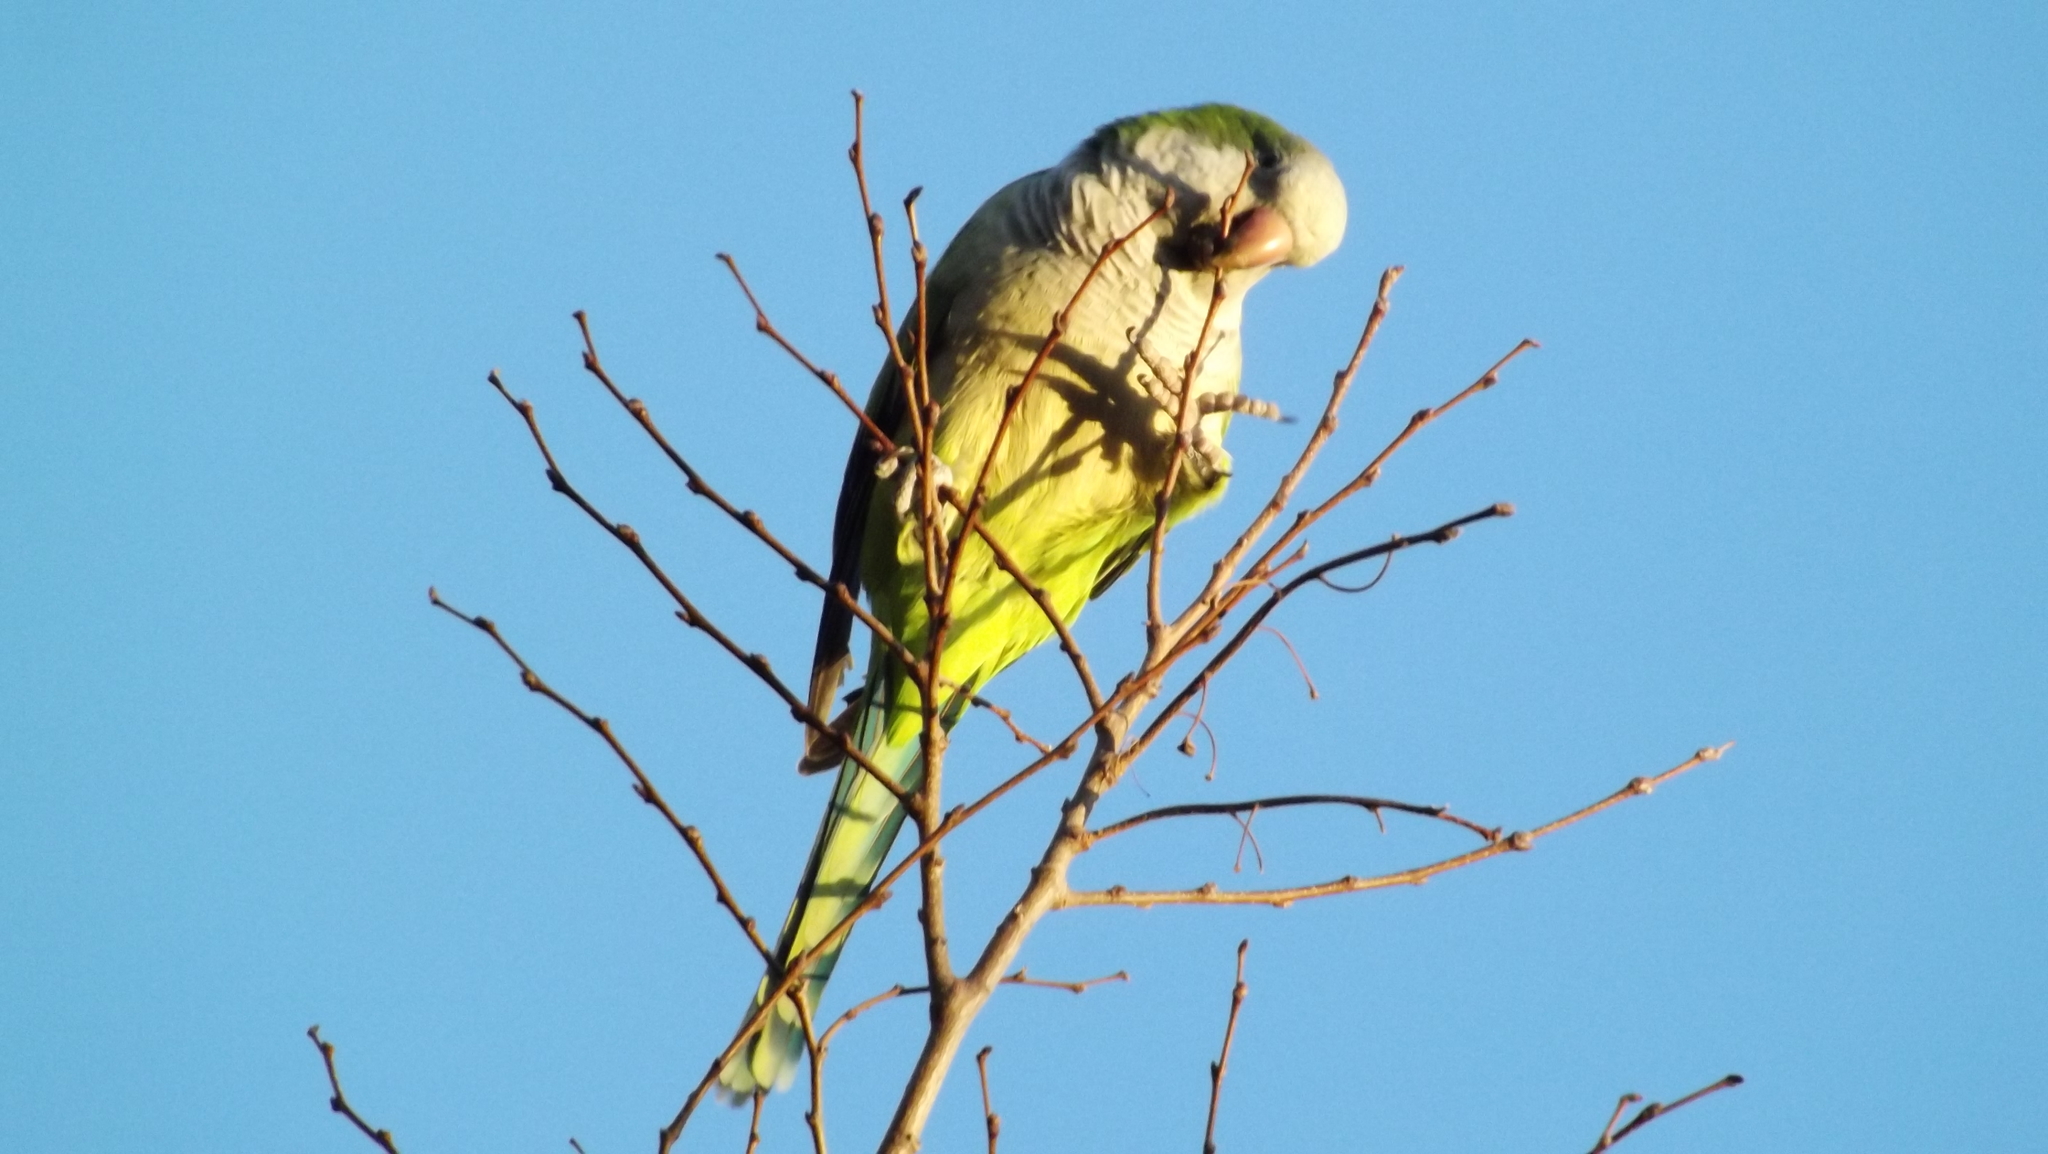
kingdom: Animalia
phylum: Chordata
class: Aves
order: Psittaciformes
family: Psittacidae
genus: Myiopsitta
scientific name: Myiopsitta monachus
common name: Monk parakeet
